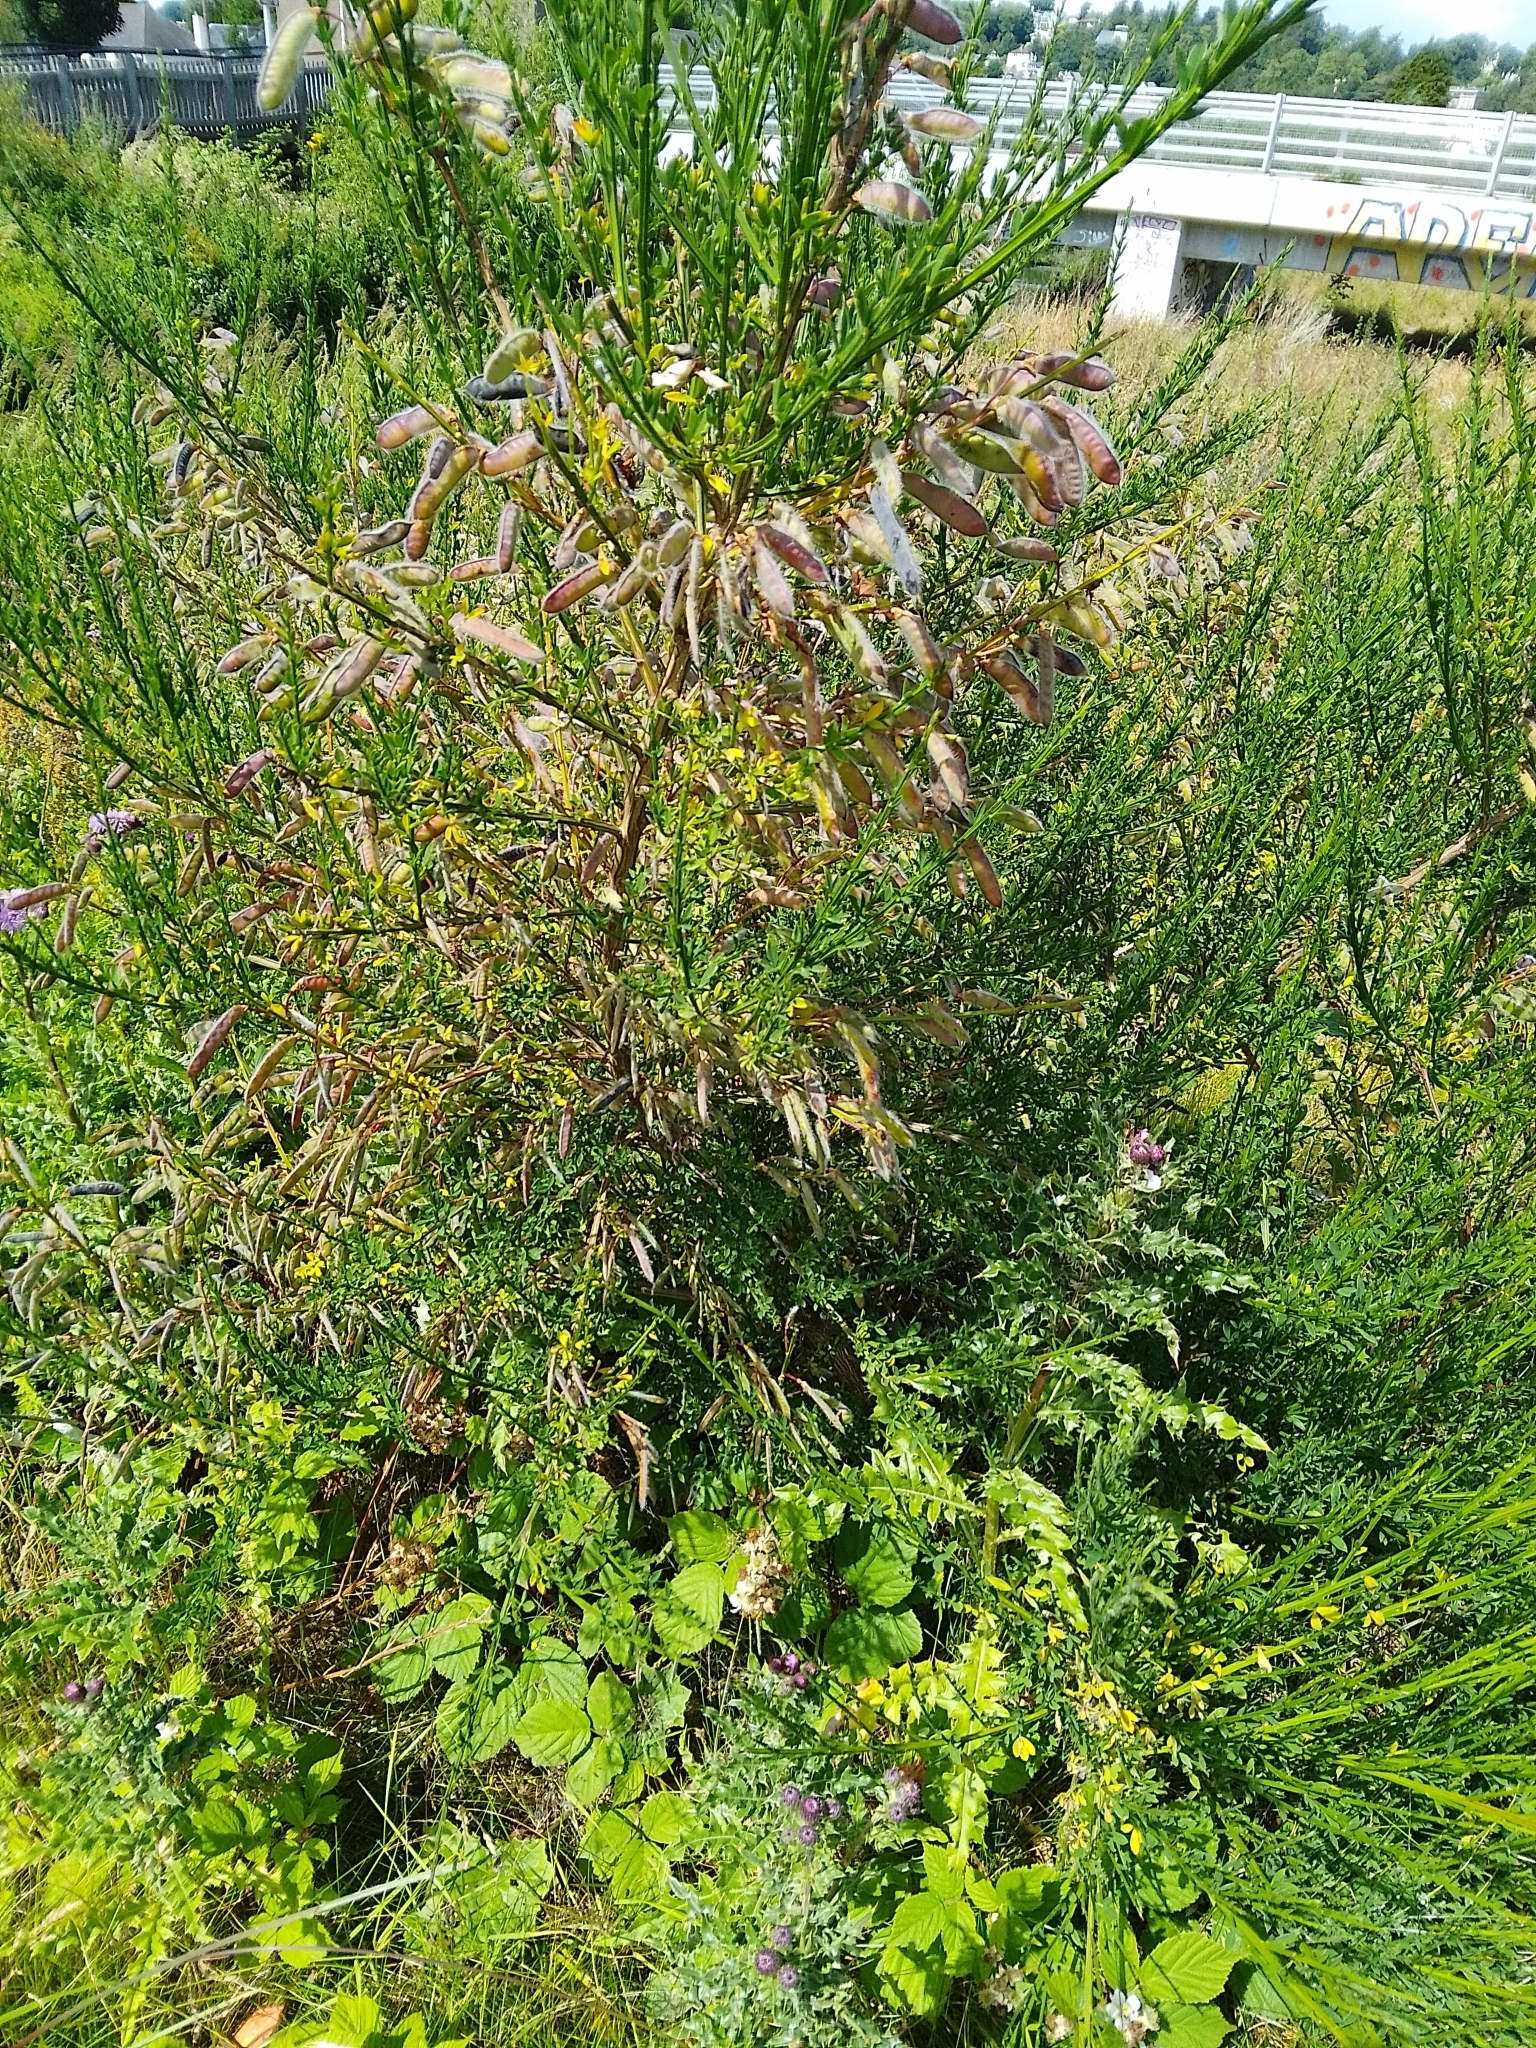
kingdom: Plantae
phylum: Tracheophyta
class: Magnoliopsida
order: Fabales
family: Fabaceae
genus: Cytisus
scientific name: Cytisus scoparius
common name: Scotch broom
